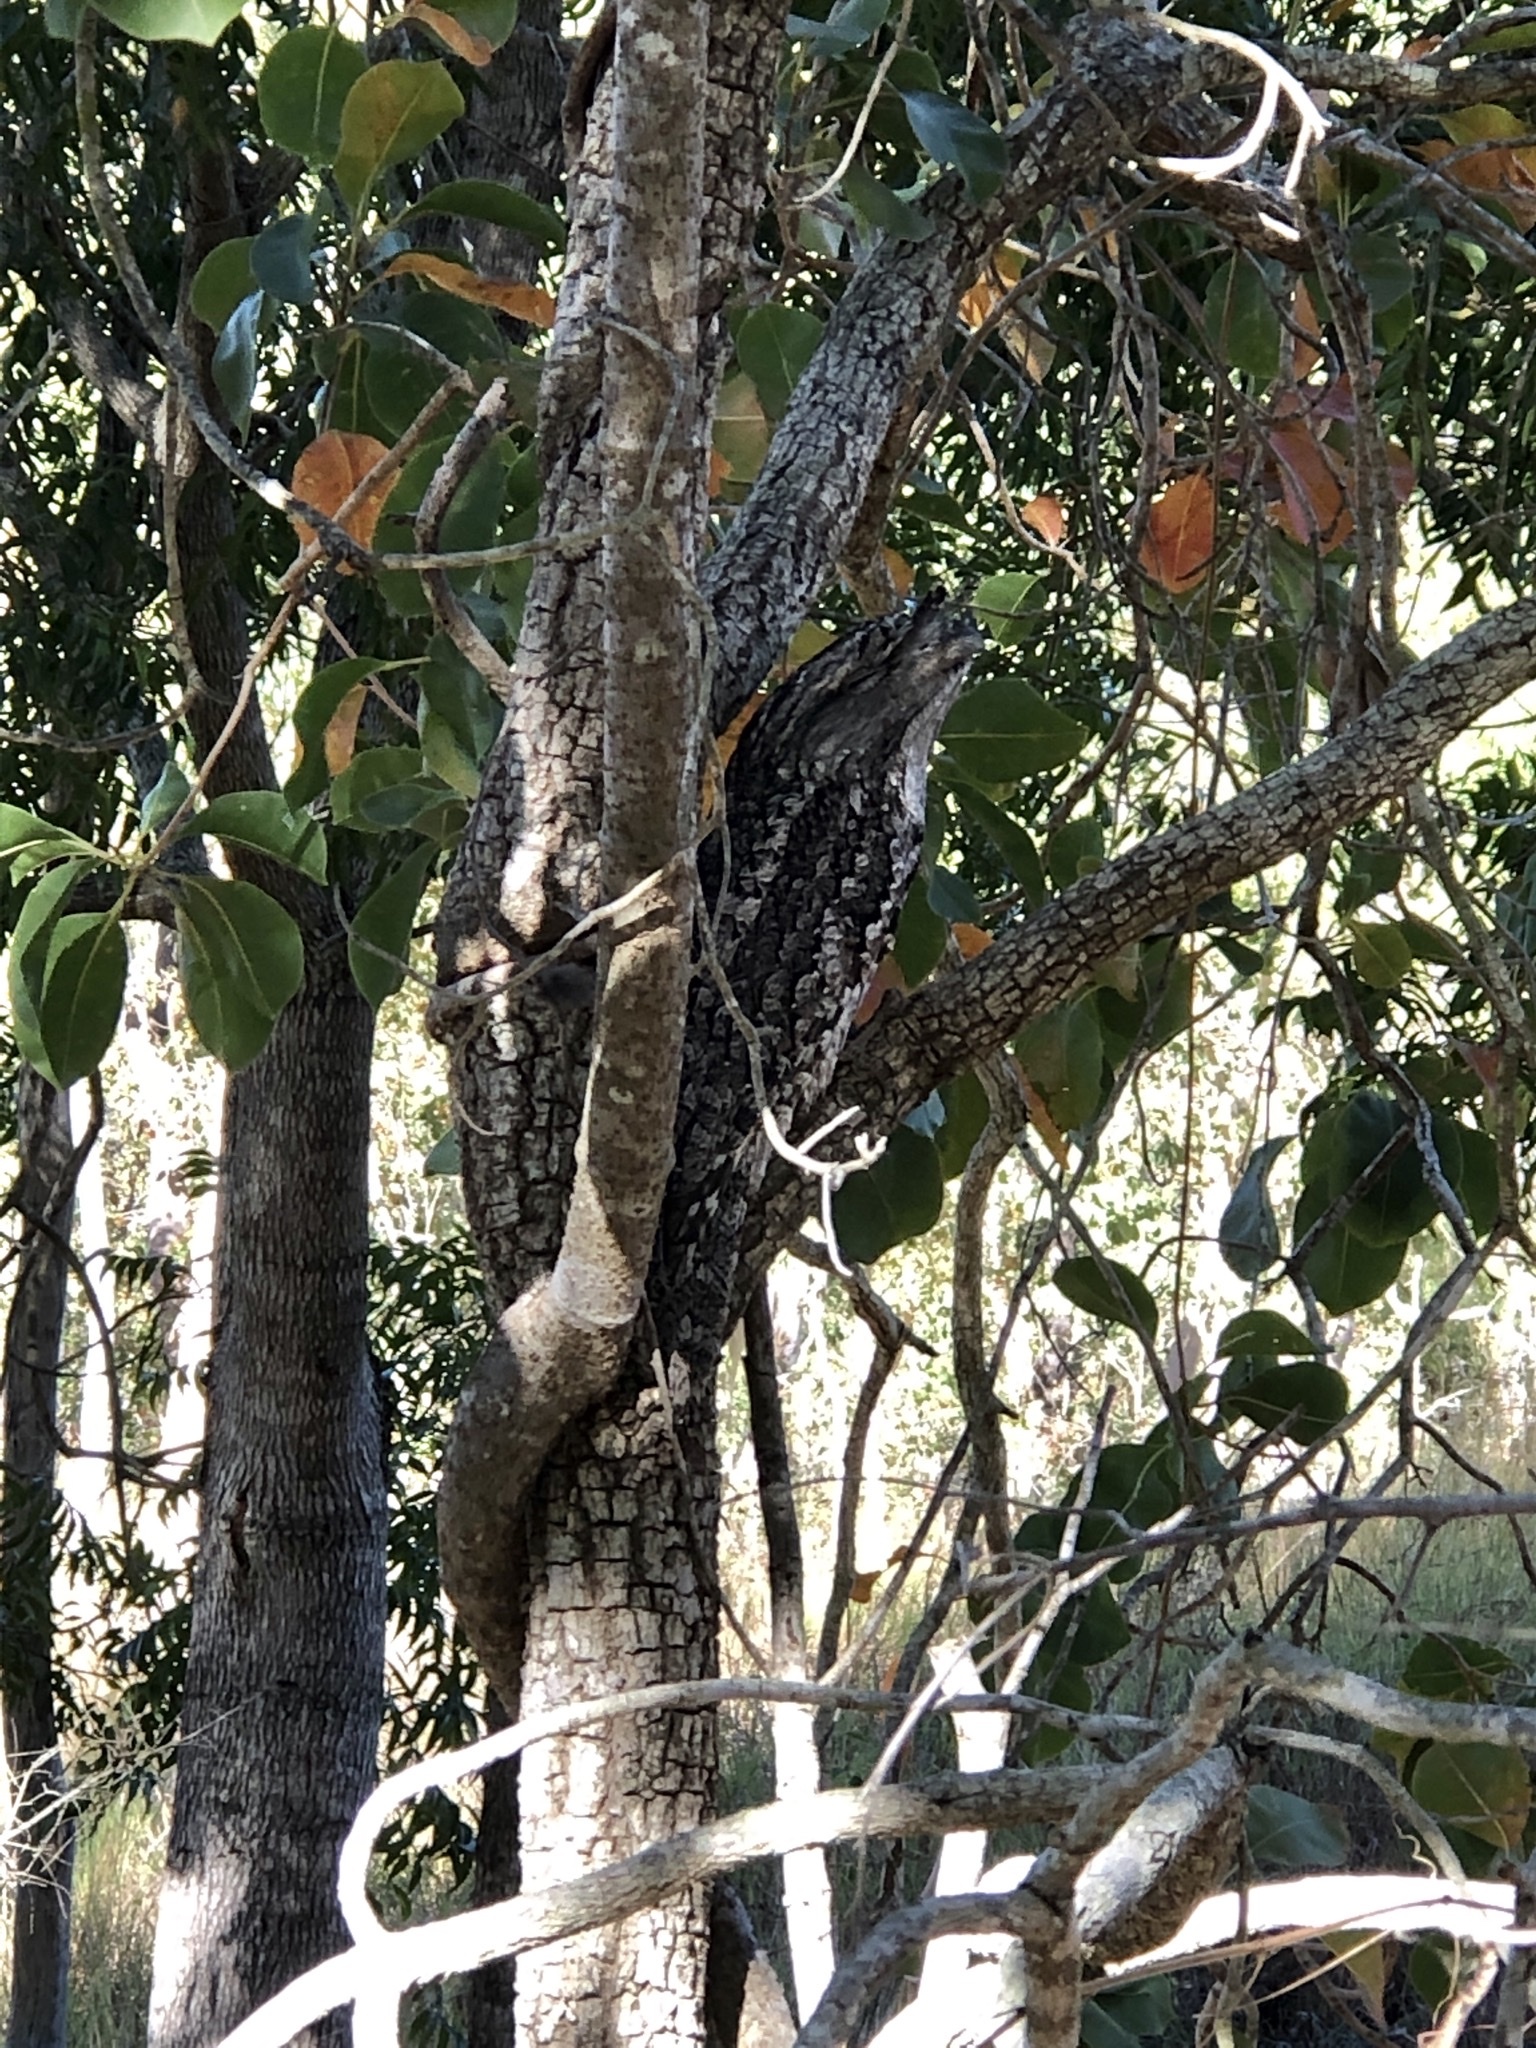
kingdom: Animalia
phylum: Chordata
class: Aves
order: Caprimulgiformes
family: Podargidae
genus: Podargus
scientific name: Podargus strigoides
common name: Tawny frogmouth
